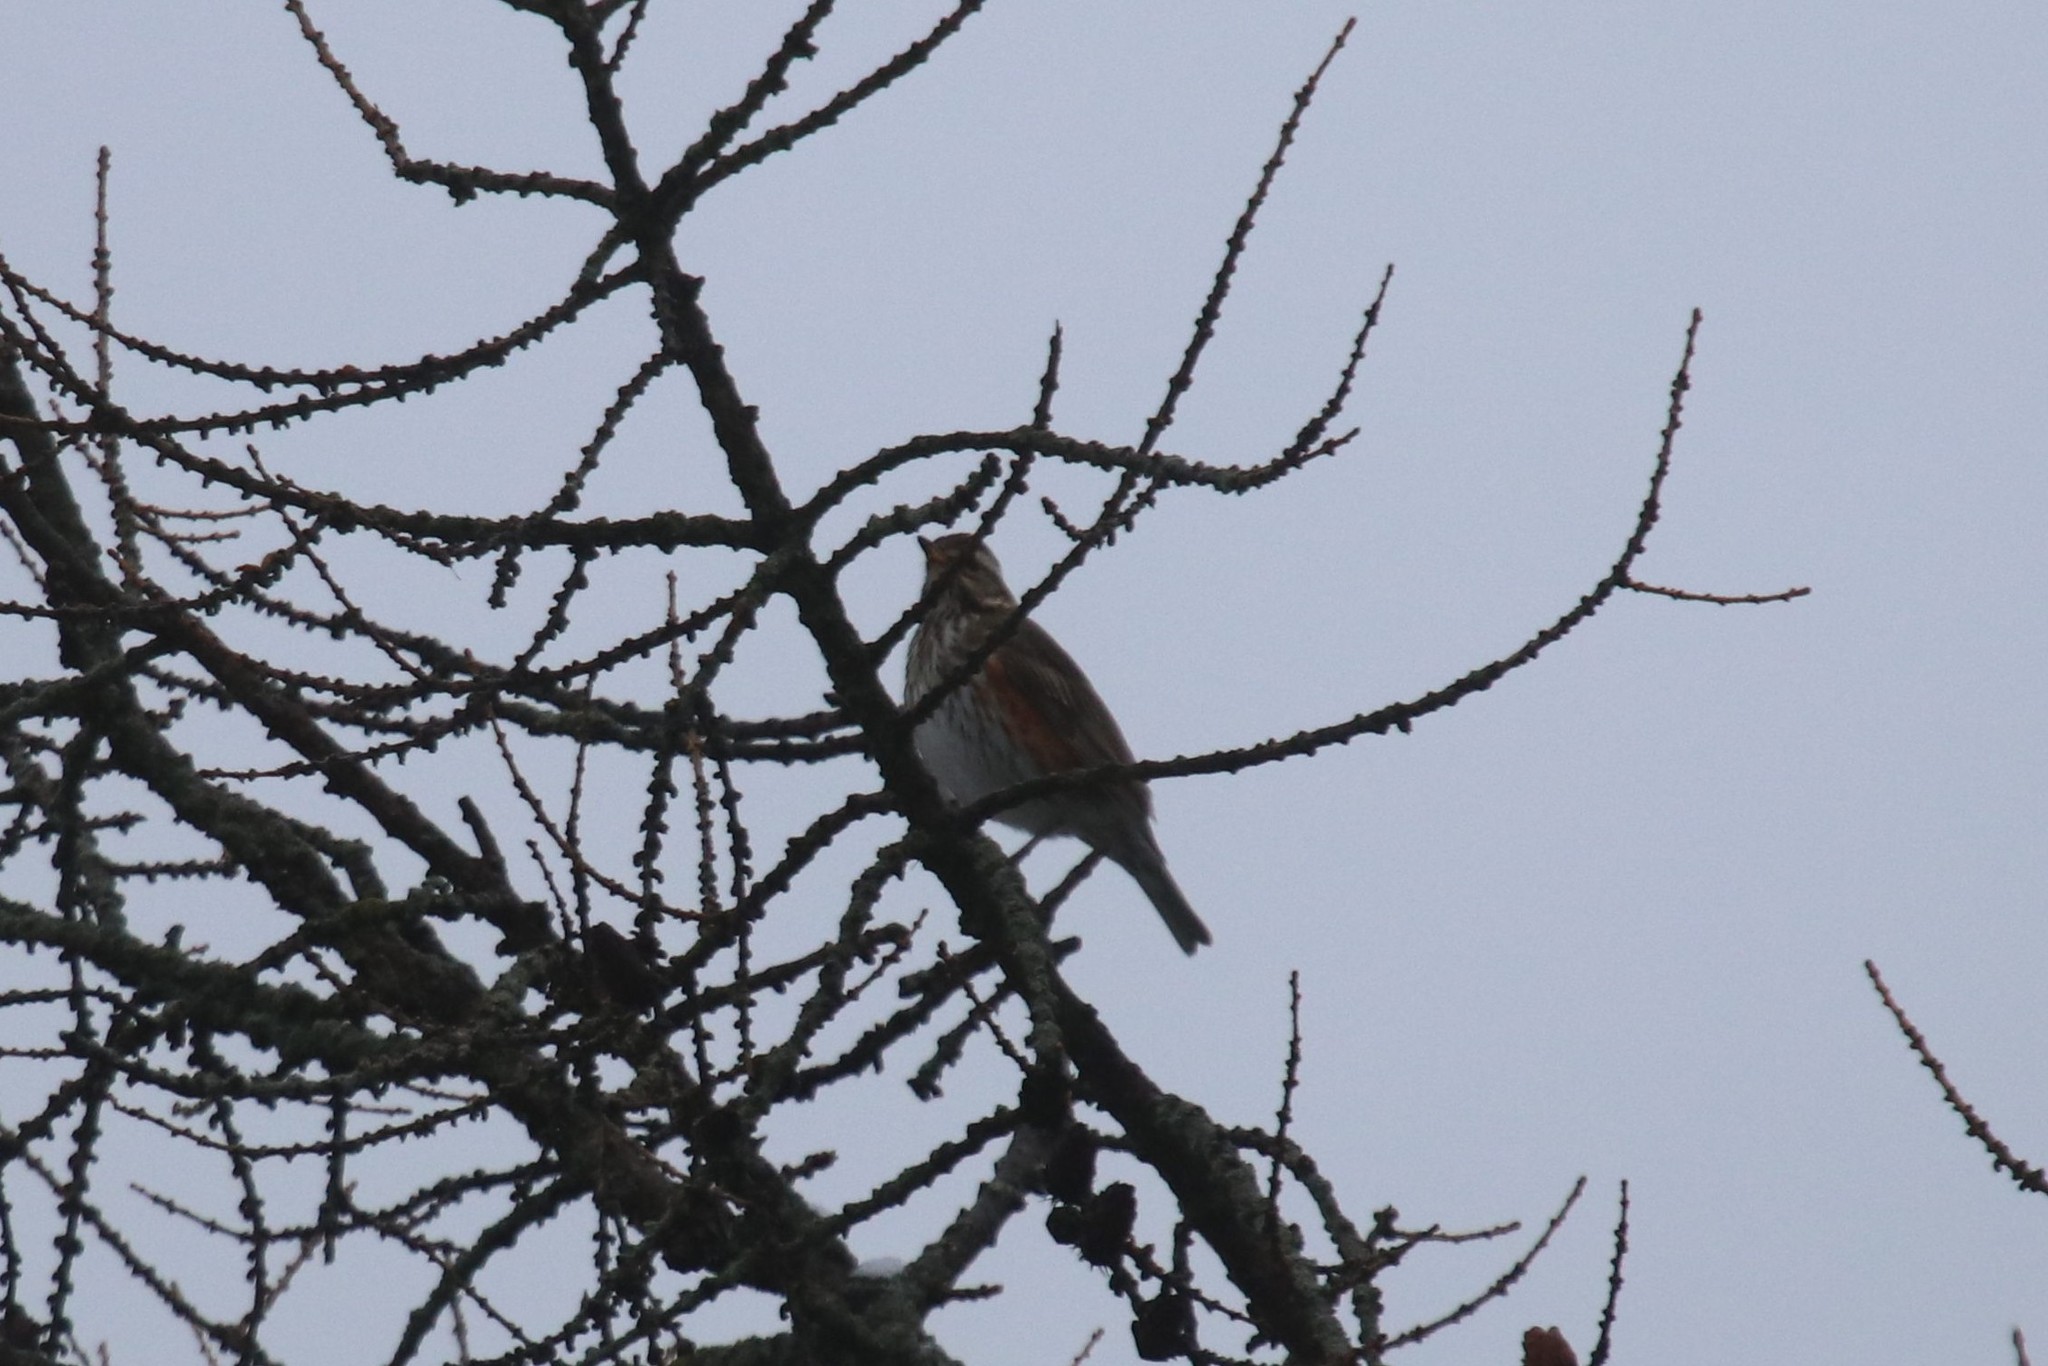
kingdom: Animalia
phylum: Chordata
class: Aves
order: Passeriformes
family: Turdidae
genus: Turdus
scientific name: Turdus iliacus
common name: Redwing
